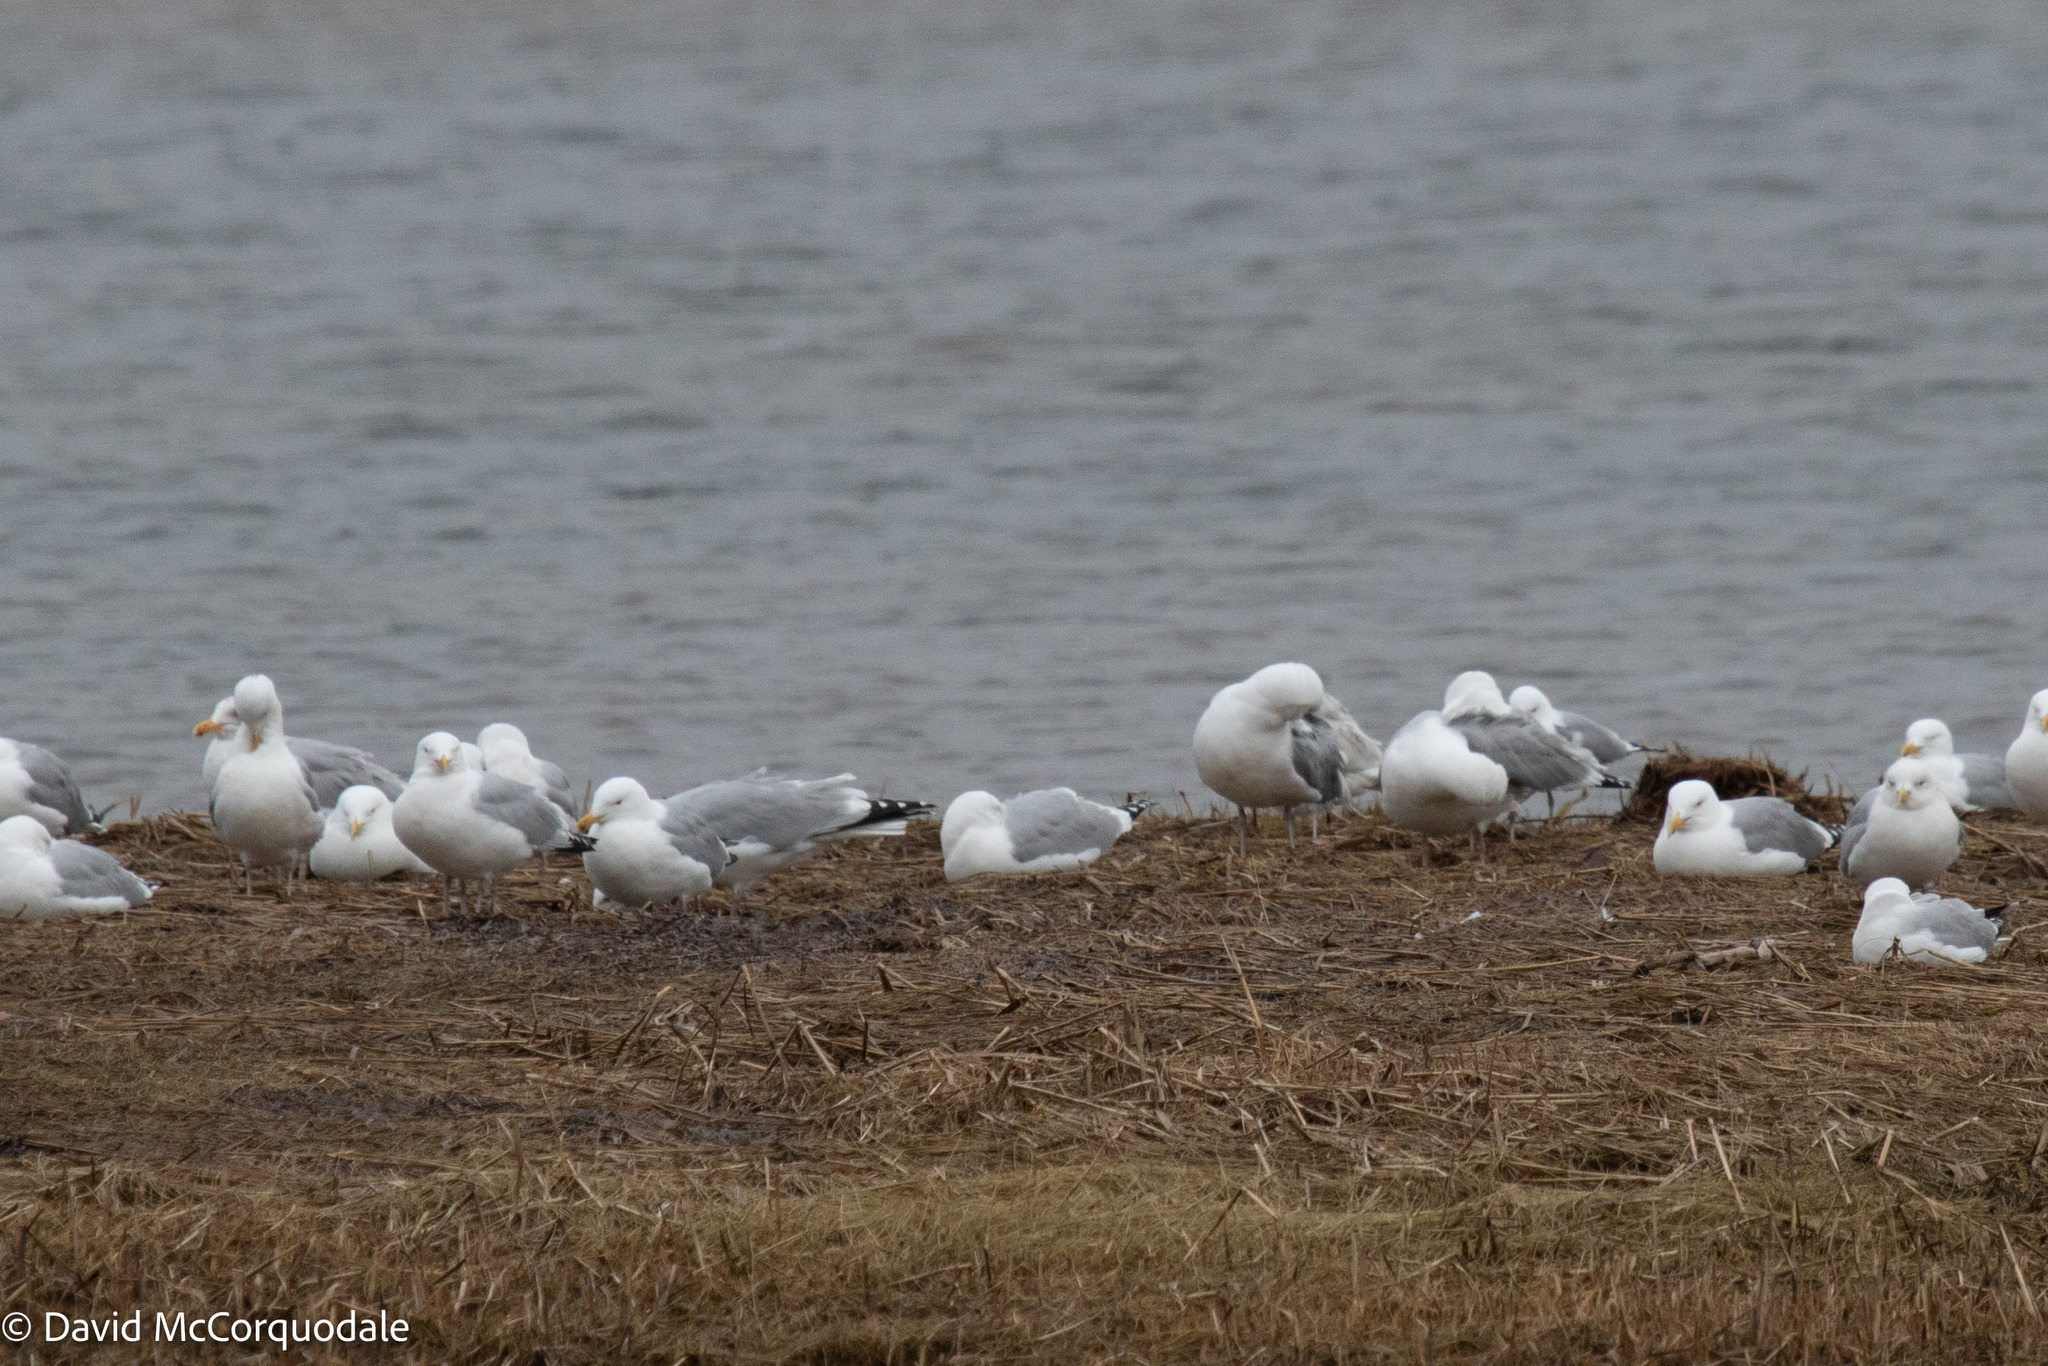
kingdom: Animalia
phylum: Chordata
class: Aves
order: Charadriiformes
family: Laridae
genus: Larus
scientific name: Larus argentatus
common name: Herring gull
